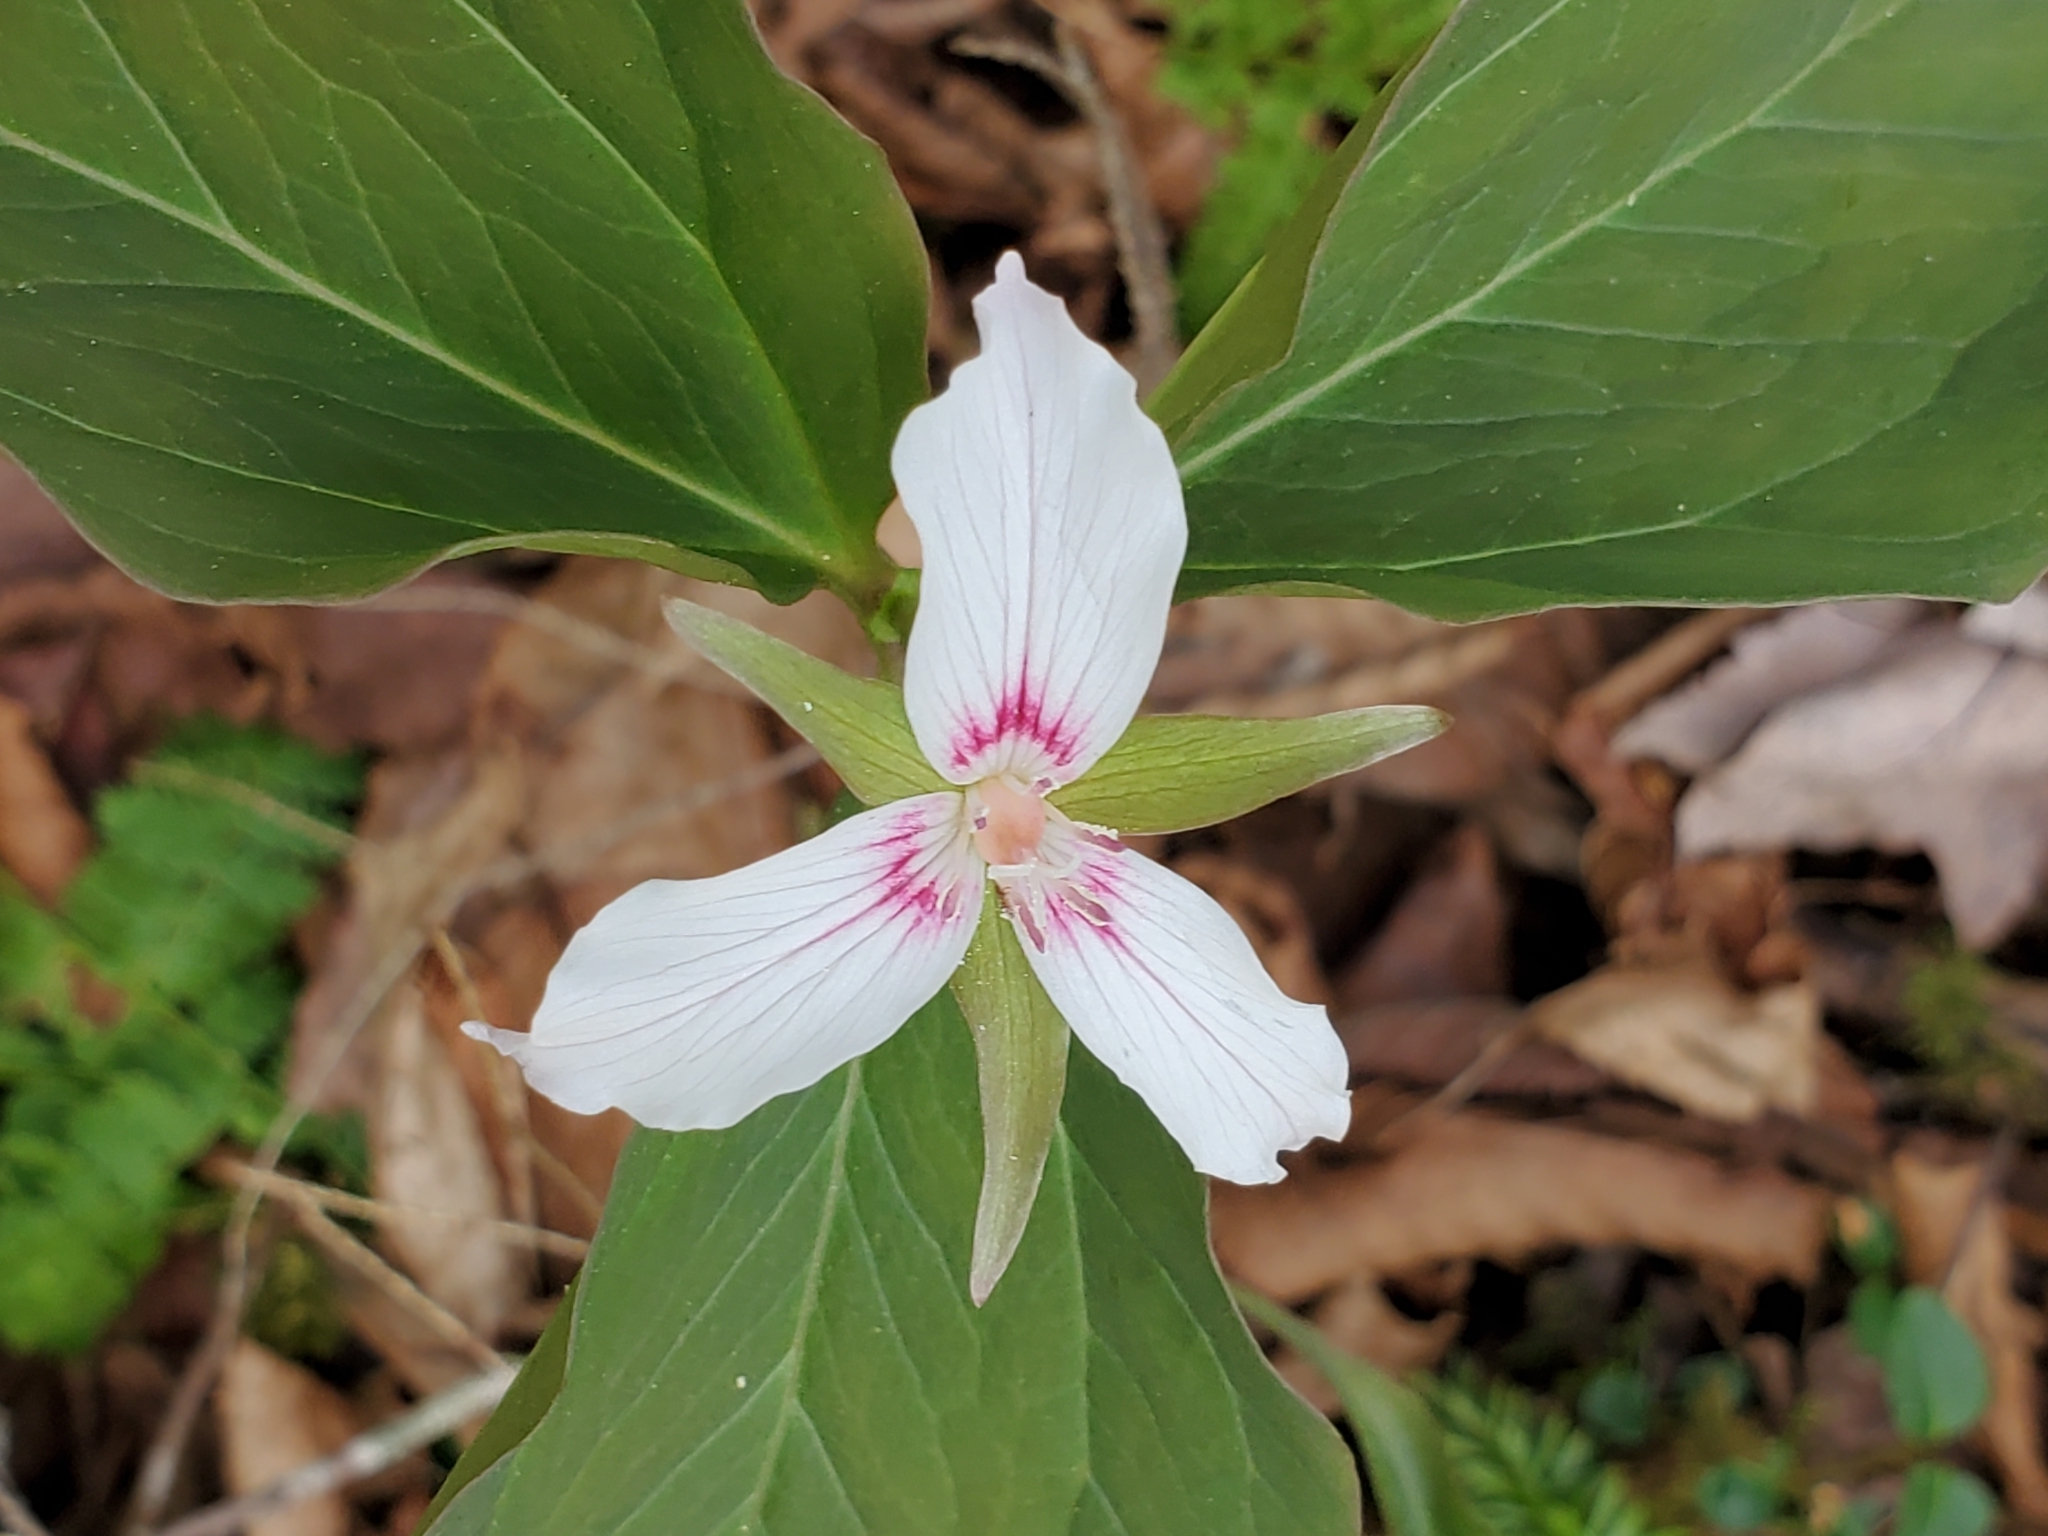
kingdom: Plantae
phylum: Tracheophyta
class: Liliopsida
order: Liliales
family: Melanthiaceae
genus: Trillium
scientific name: Trillium undulatum
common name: Paint trillium
